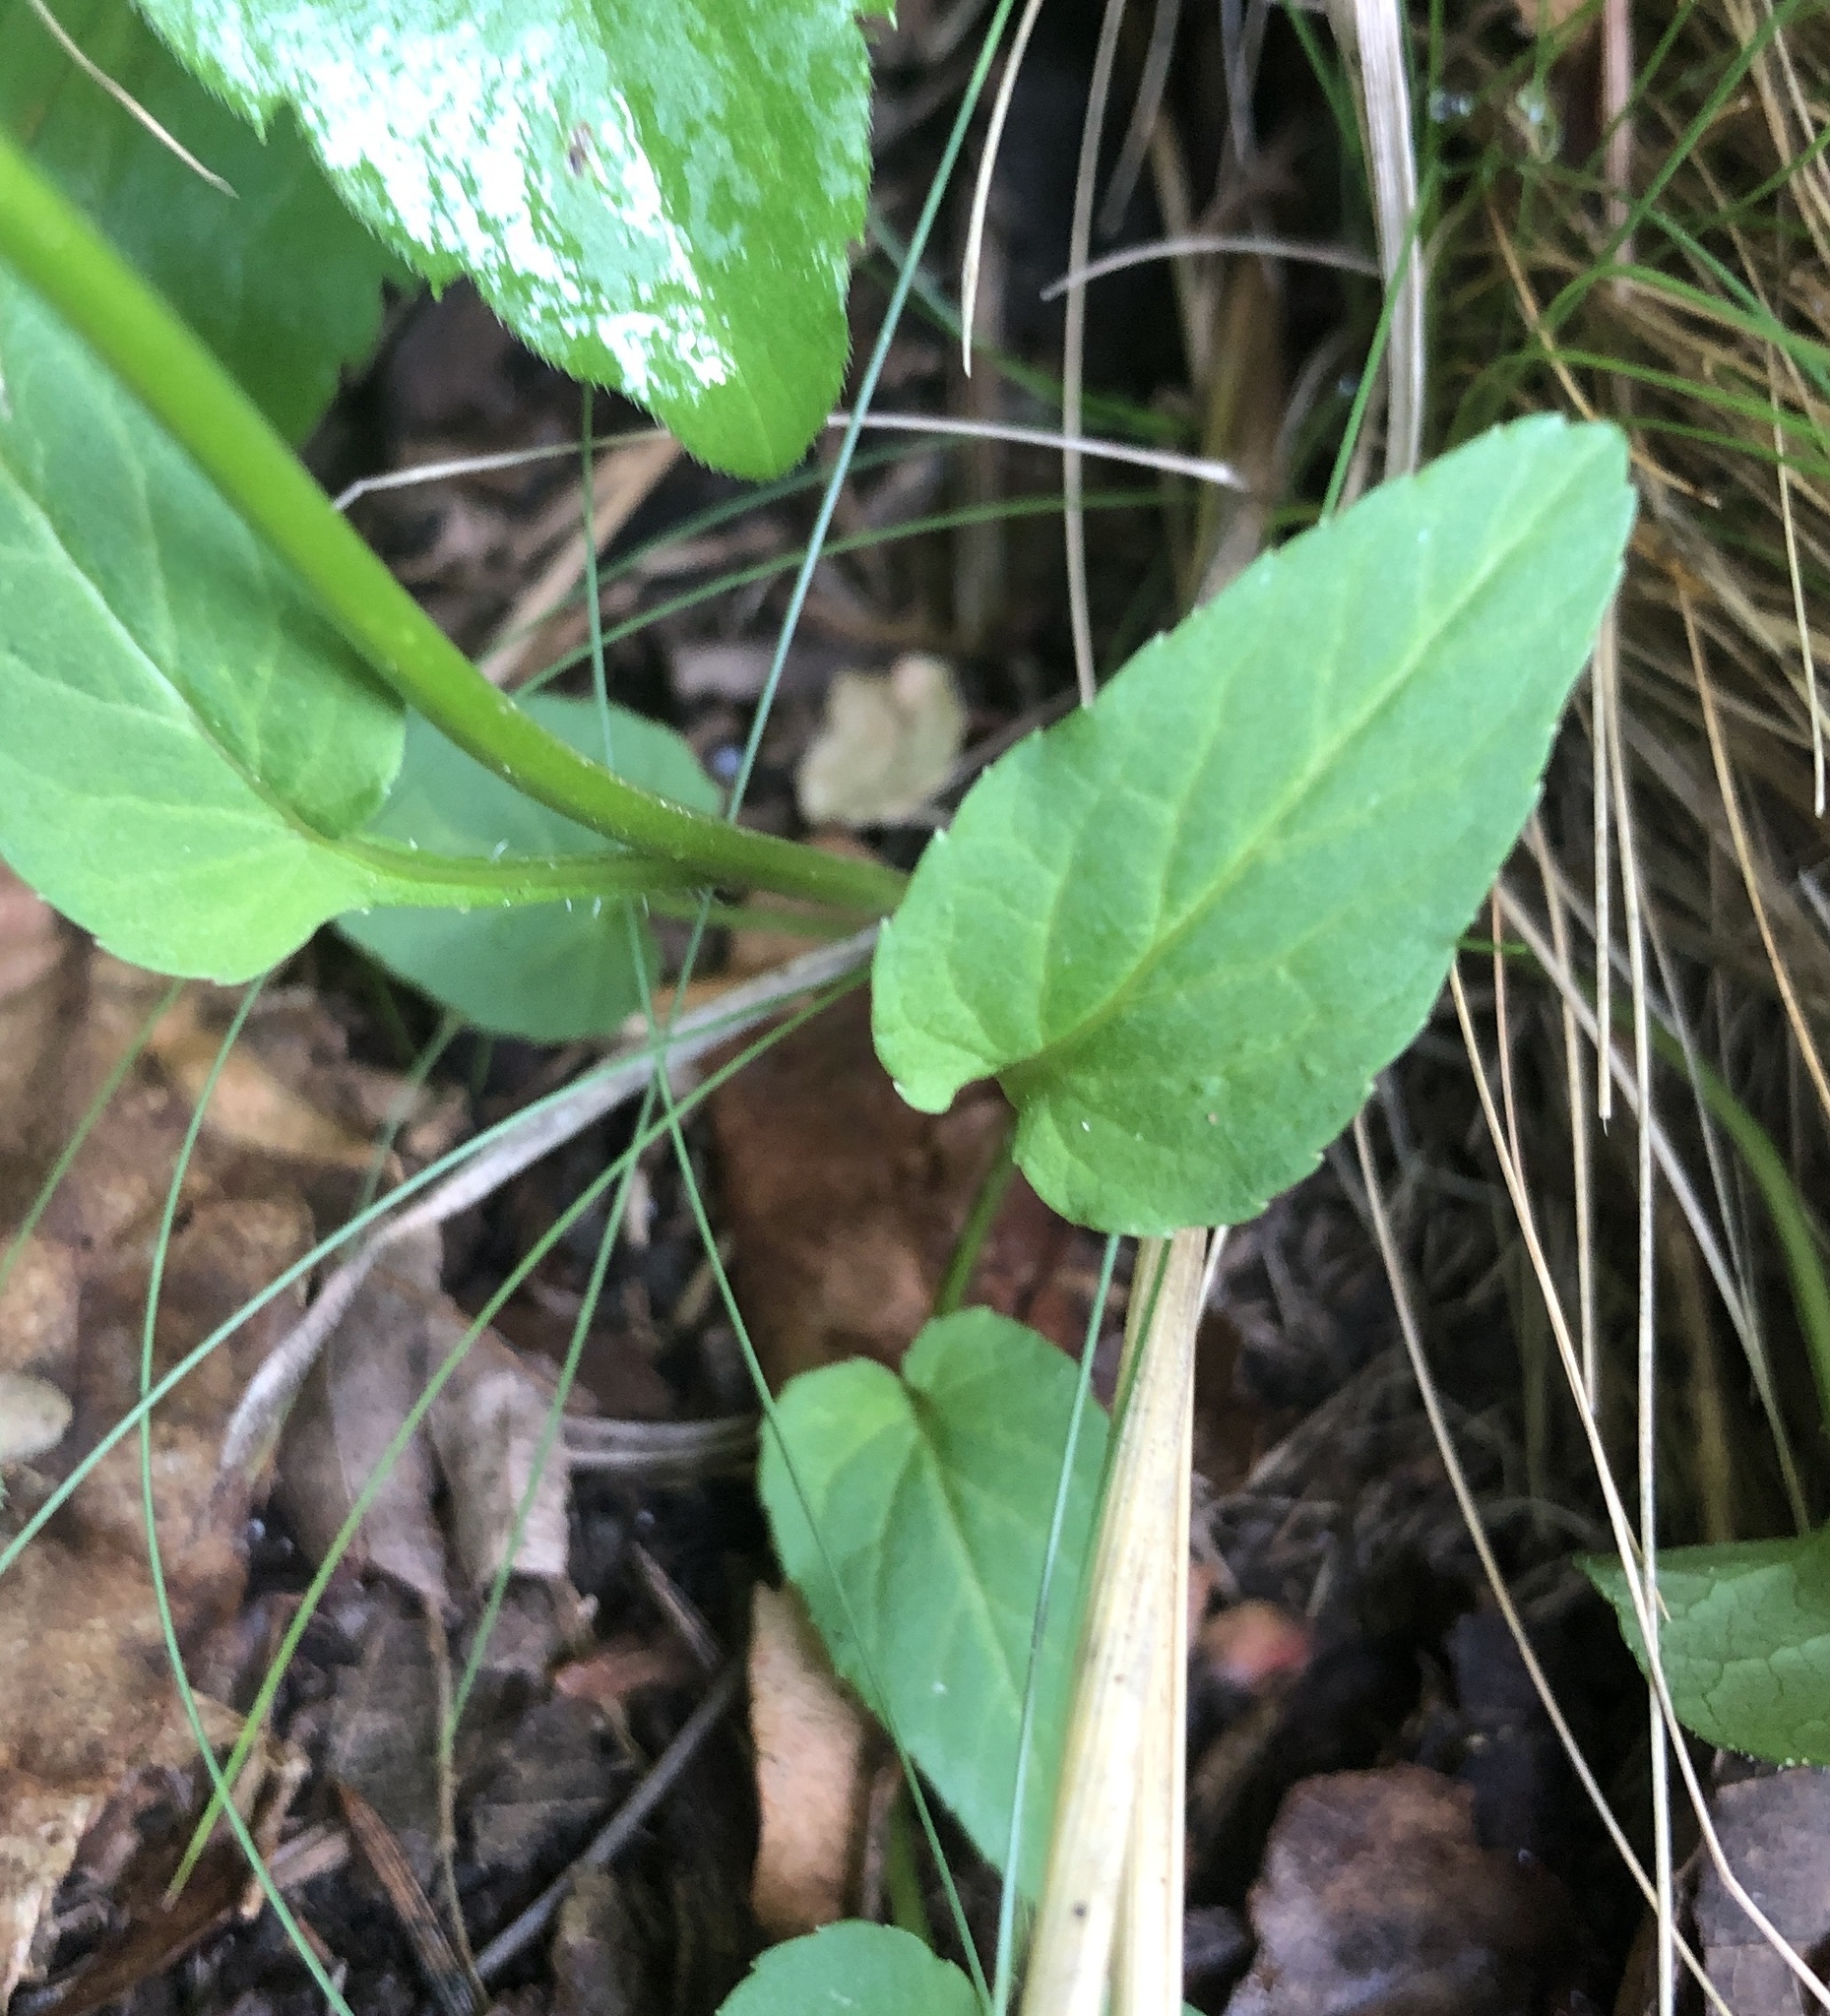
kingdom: Plantae
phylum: Tracheophyta
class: Magnoliopsida
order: Asterales
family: Campanulaceae
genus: Phyteuma
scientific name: Phyteuma betonicifolium
